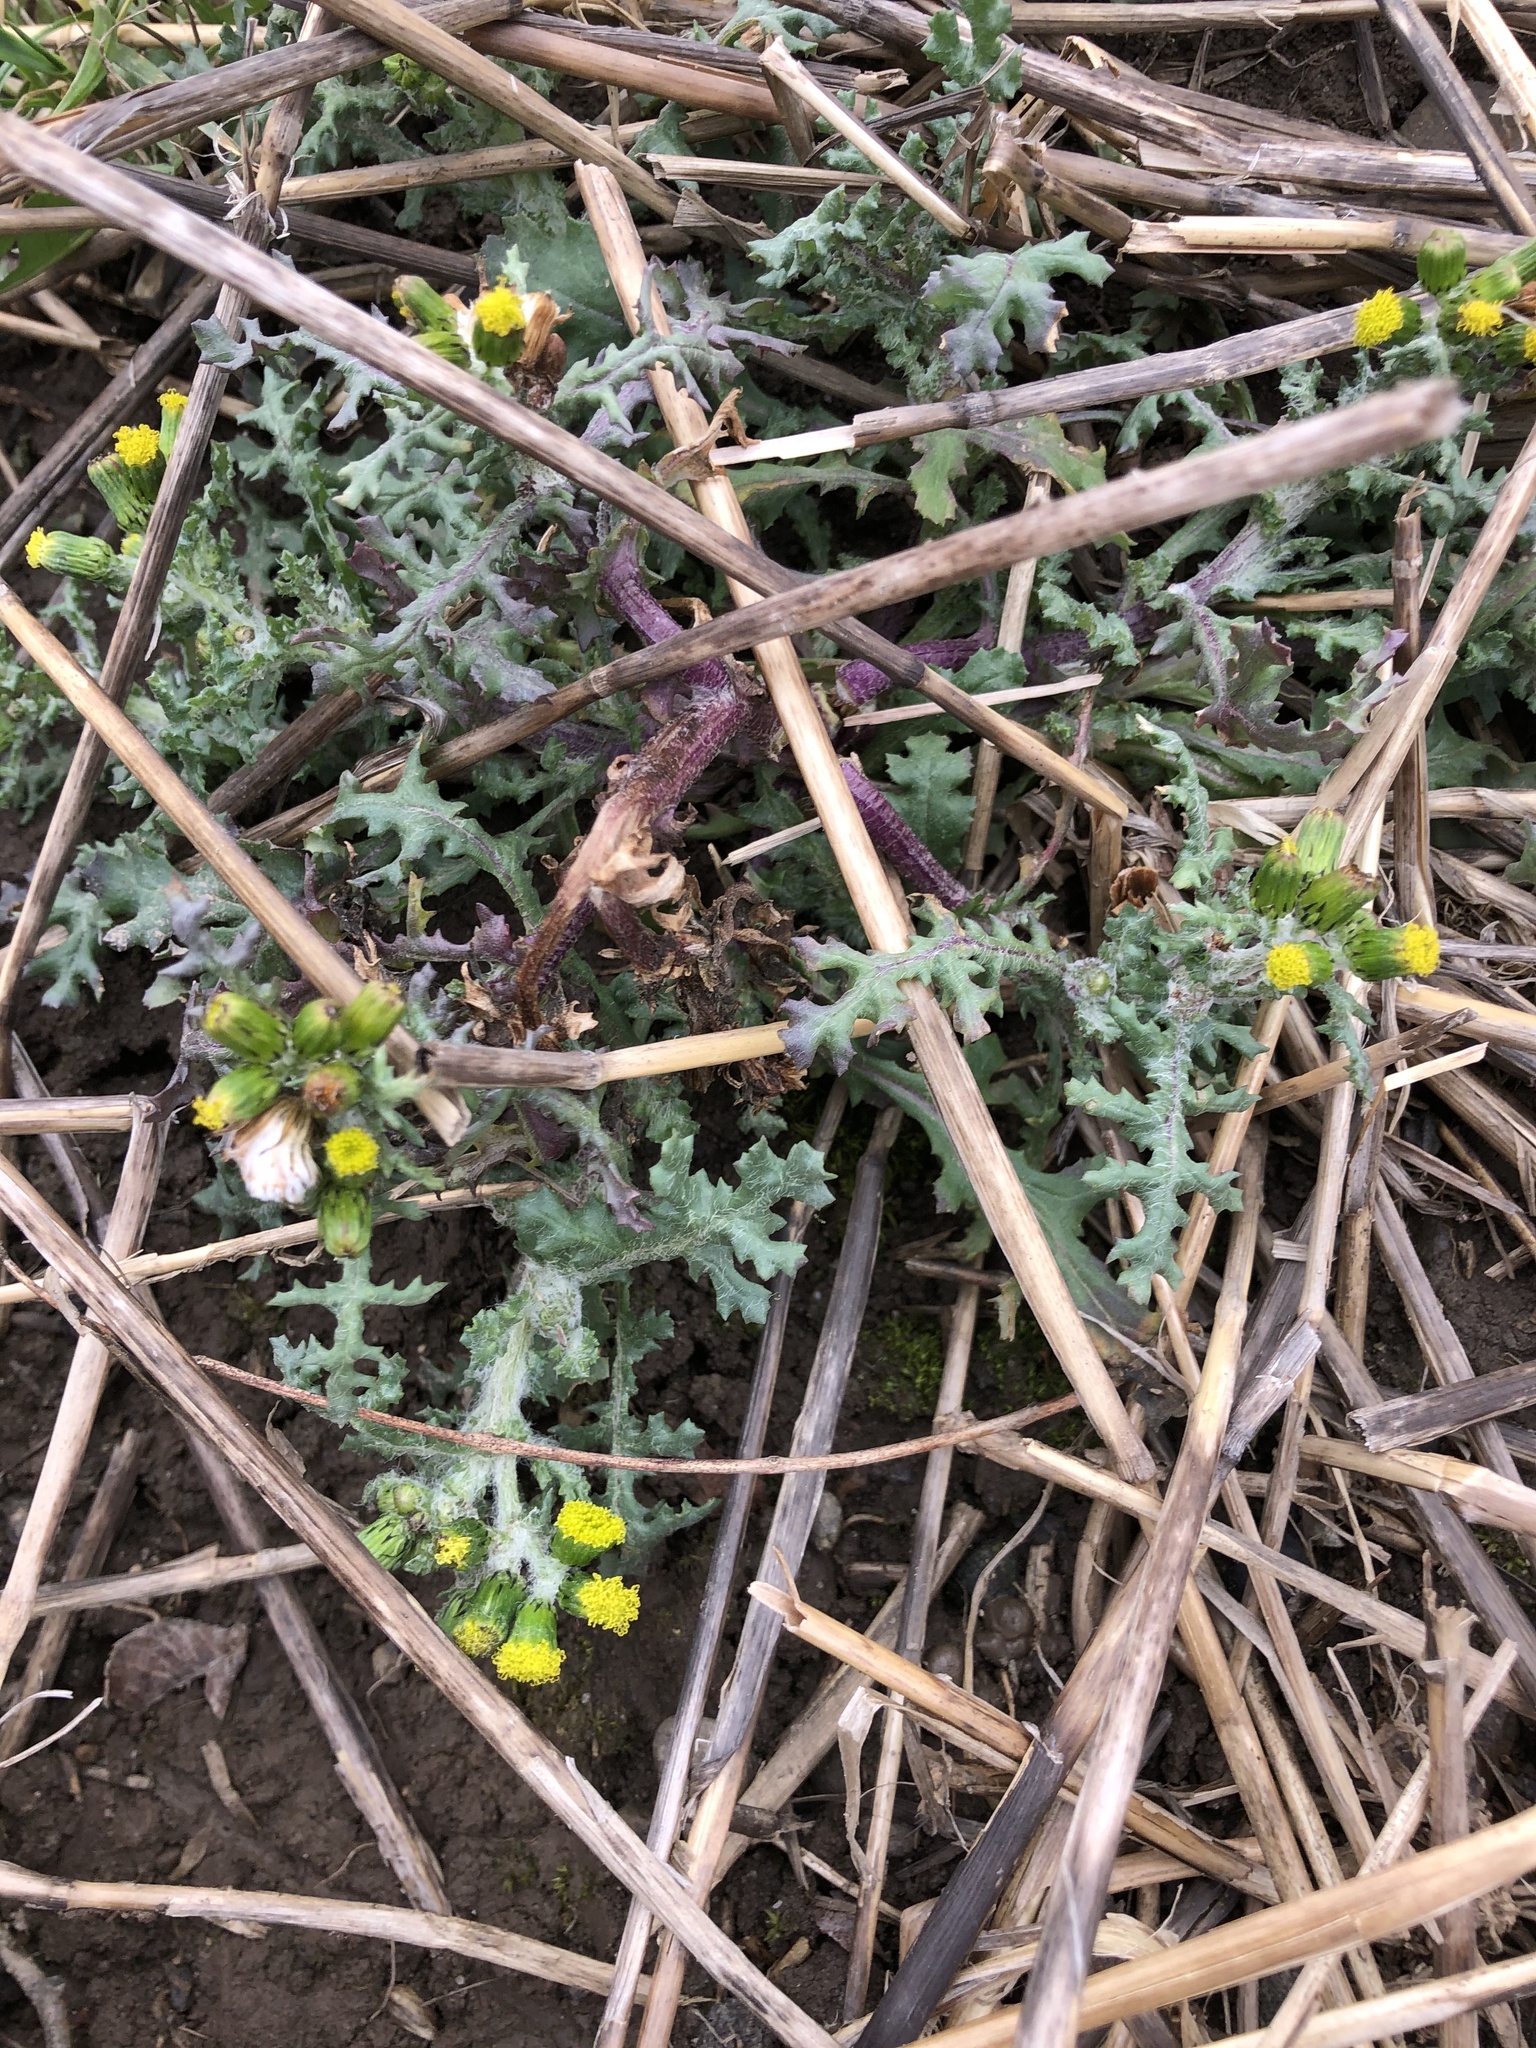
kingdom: Plantae
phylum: Tracheophyta
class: Magnoliopsida
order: Asterales
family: Asteraceae
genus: Senecio
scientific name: Senecio vulgaris
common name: Old-man-in-the-spring
